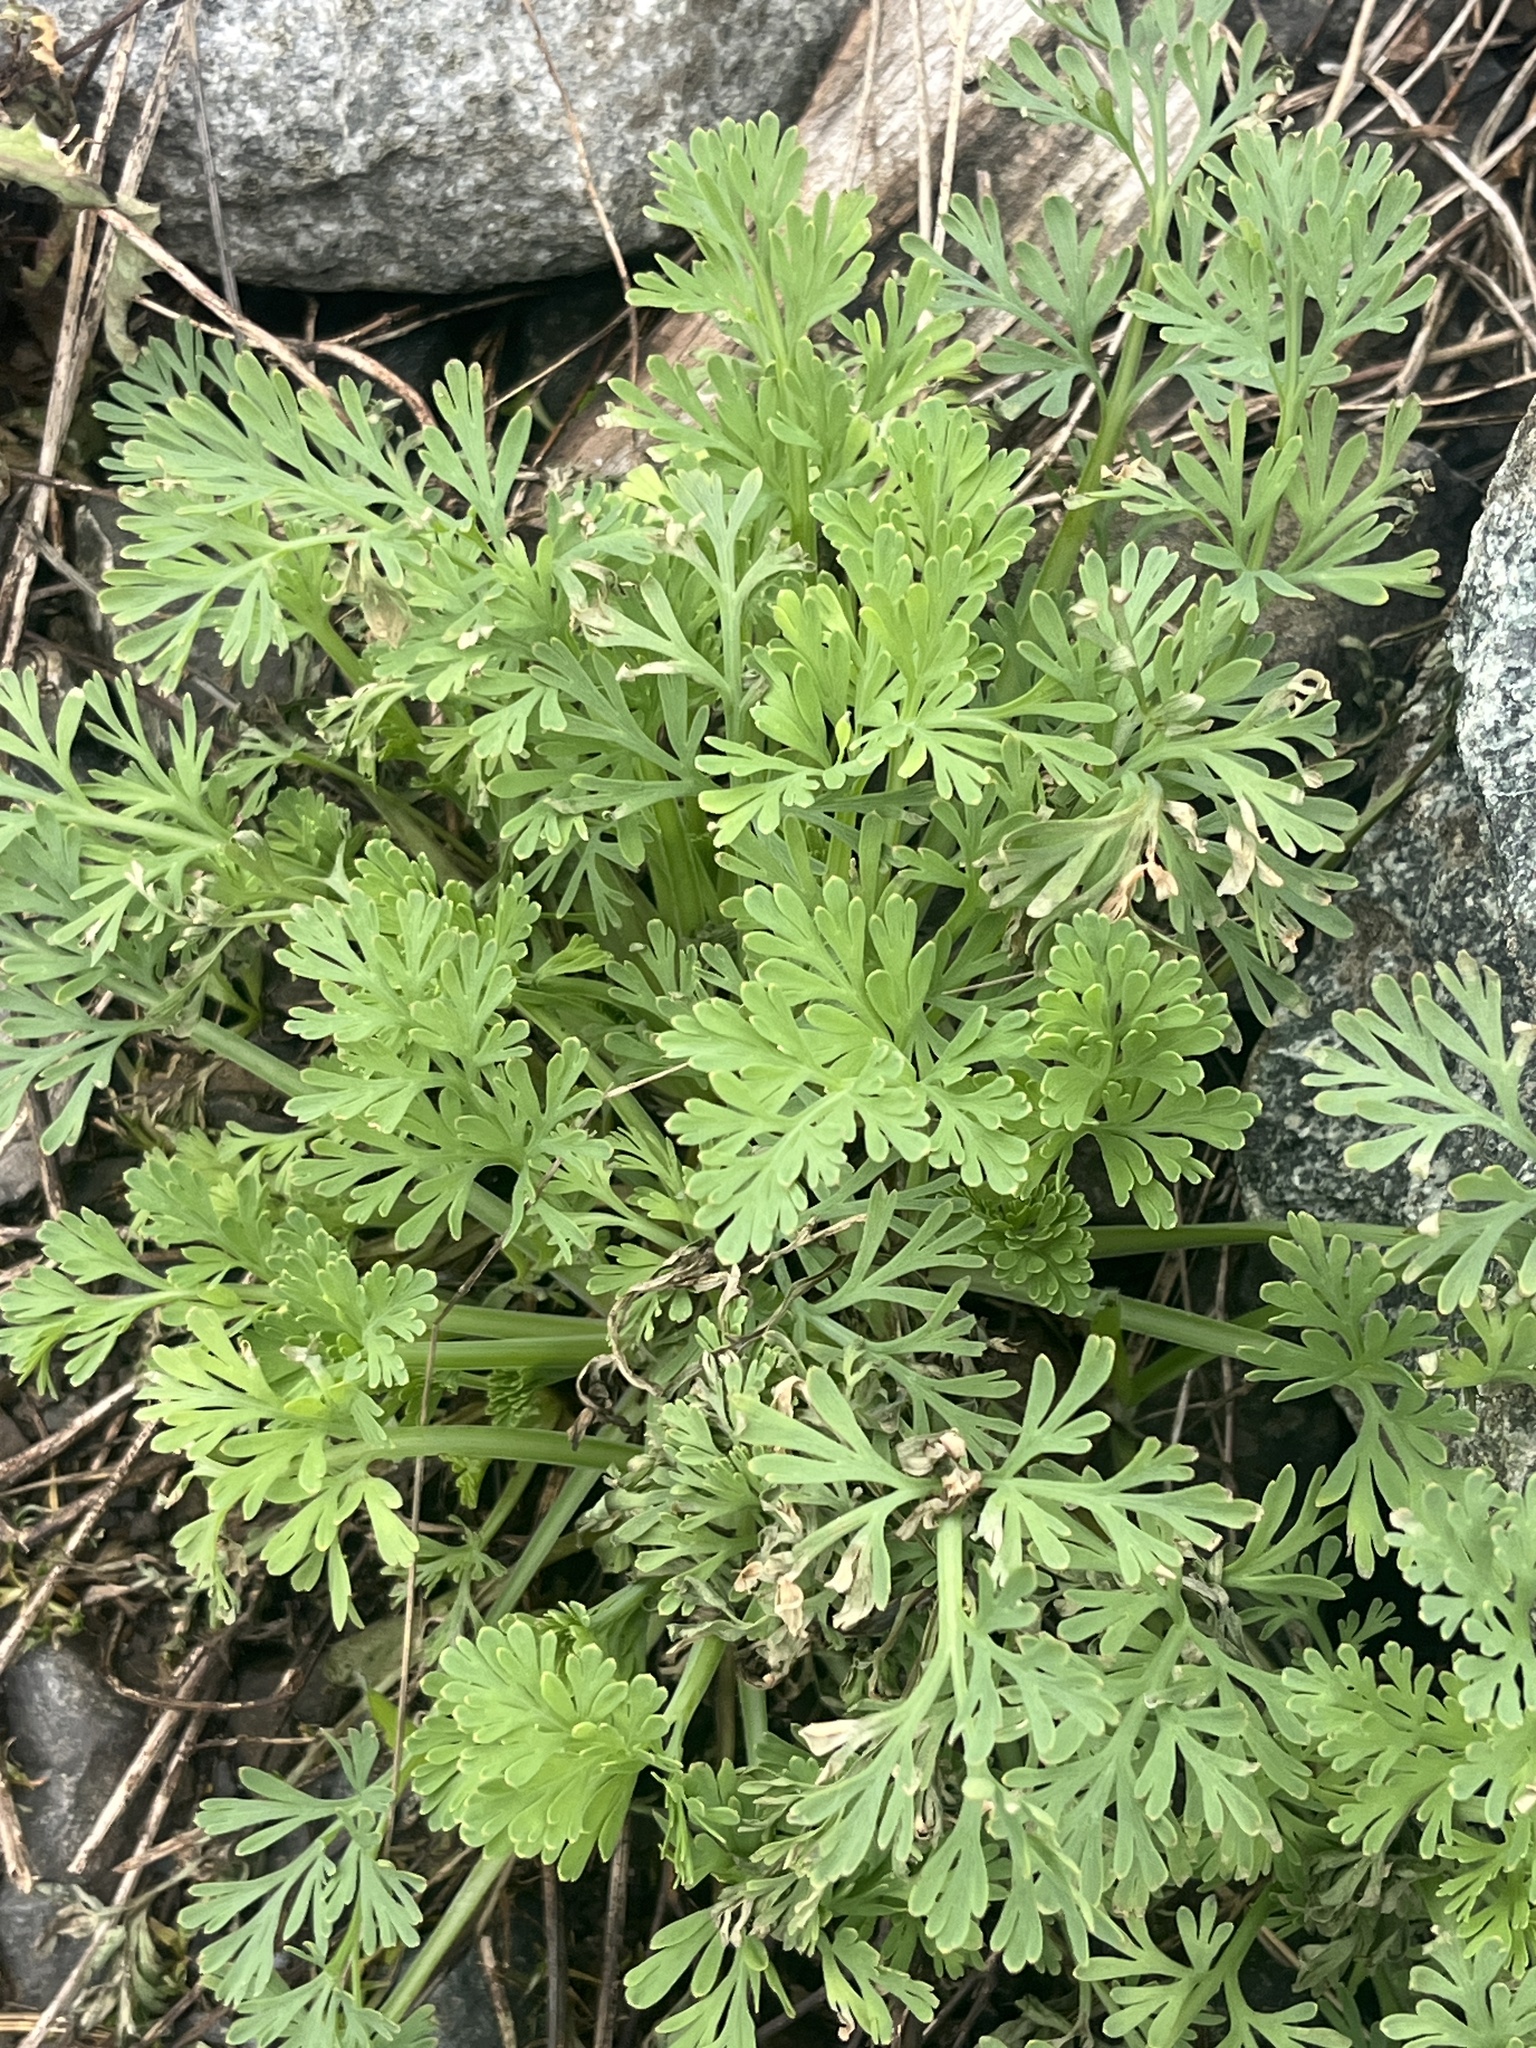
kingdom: Plantae
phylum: Tracheophyta
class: Magnoliopsida
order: Ranunculales
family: Papaveraceae
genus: Eschscholzia
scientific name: Eschscholzia californica
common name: California poppy
